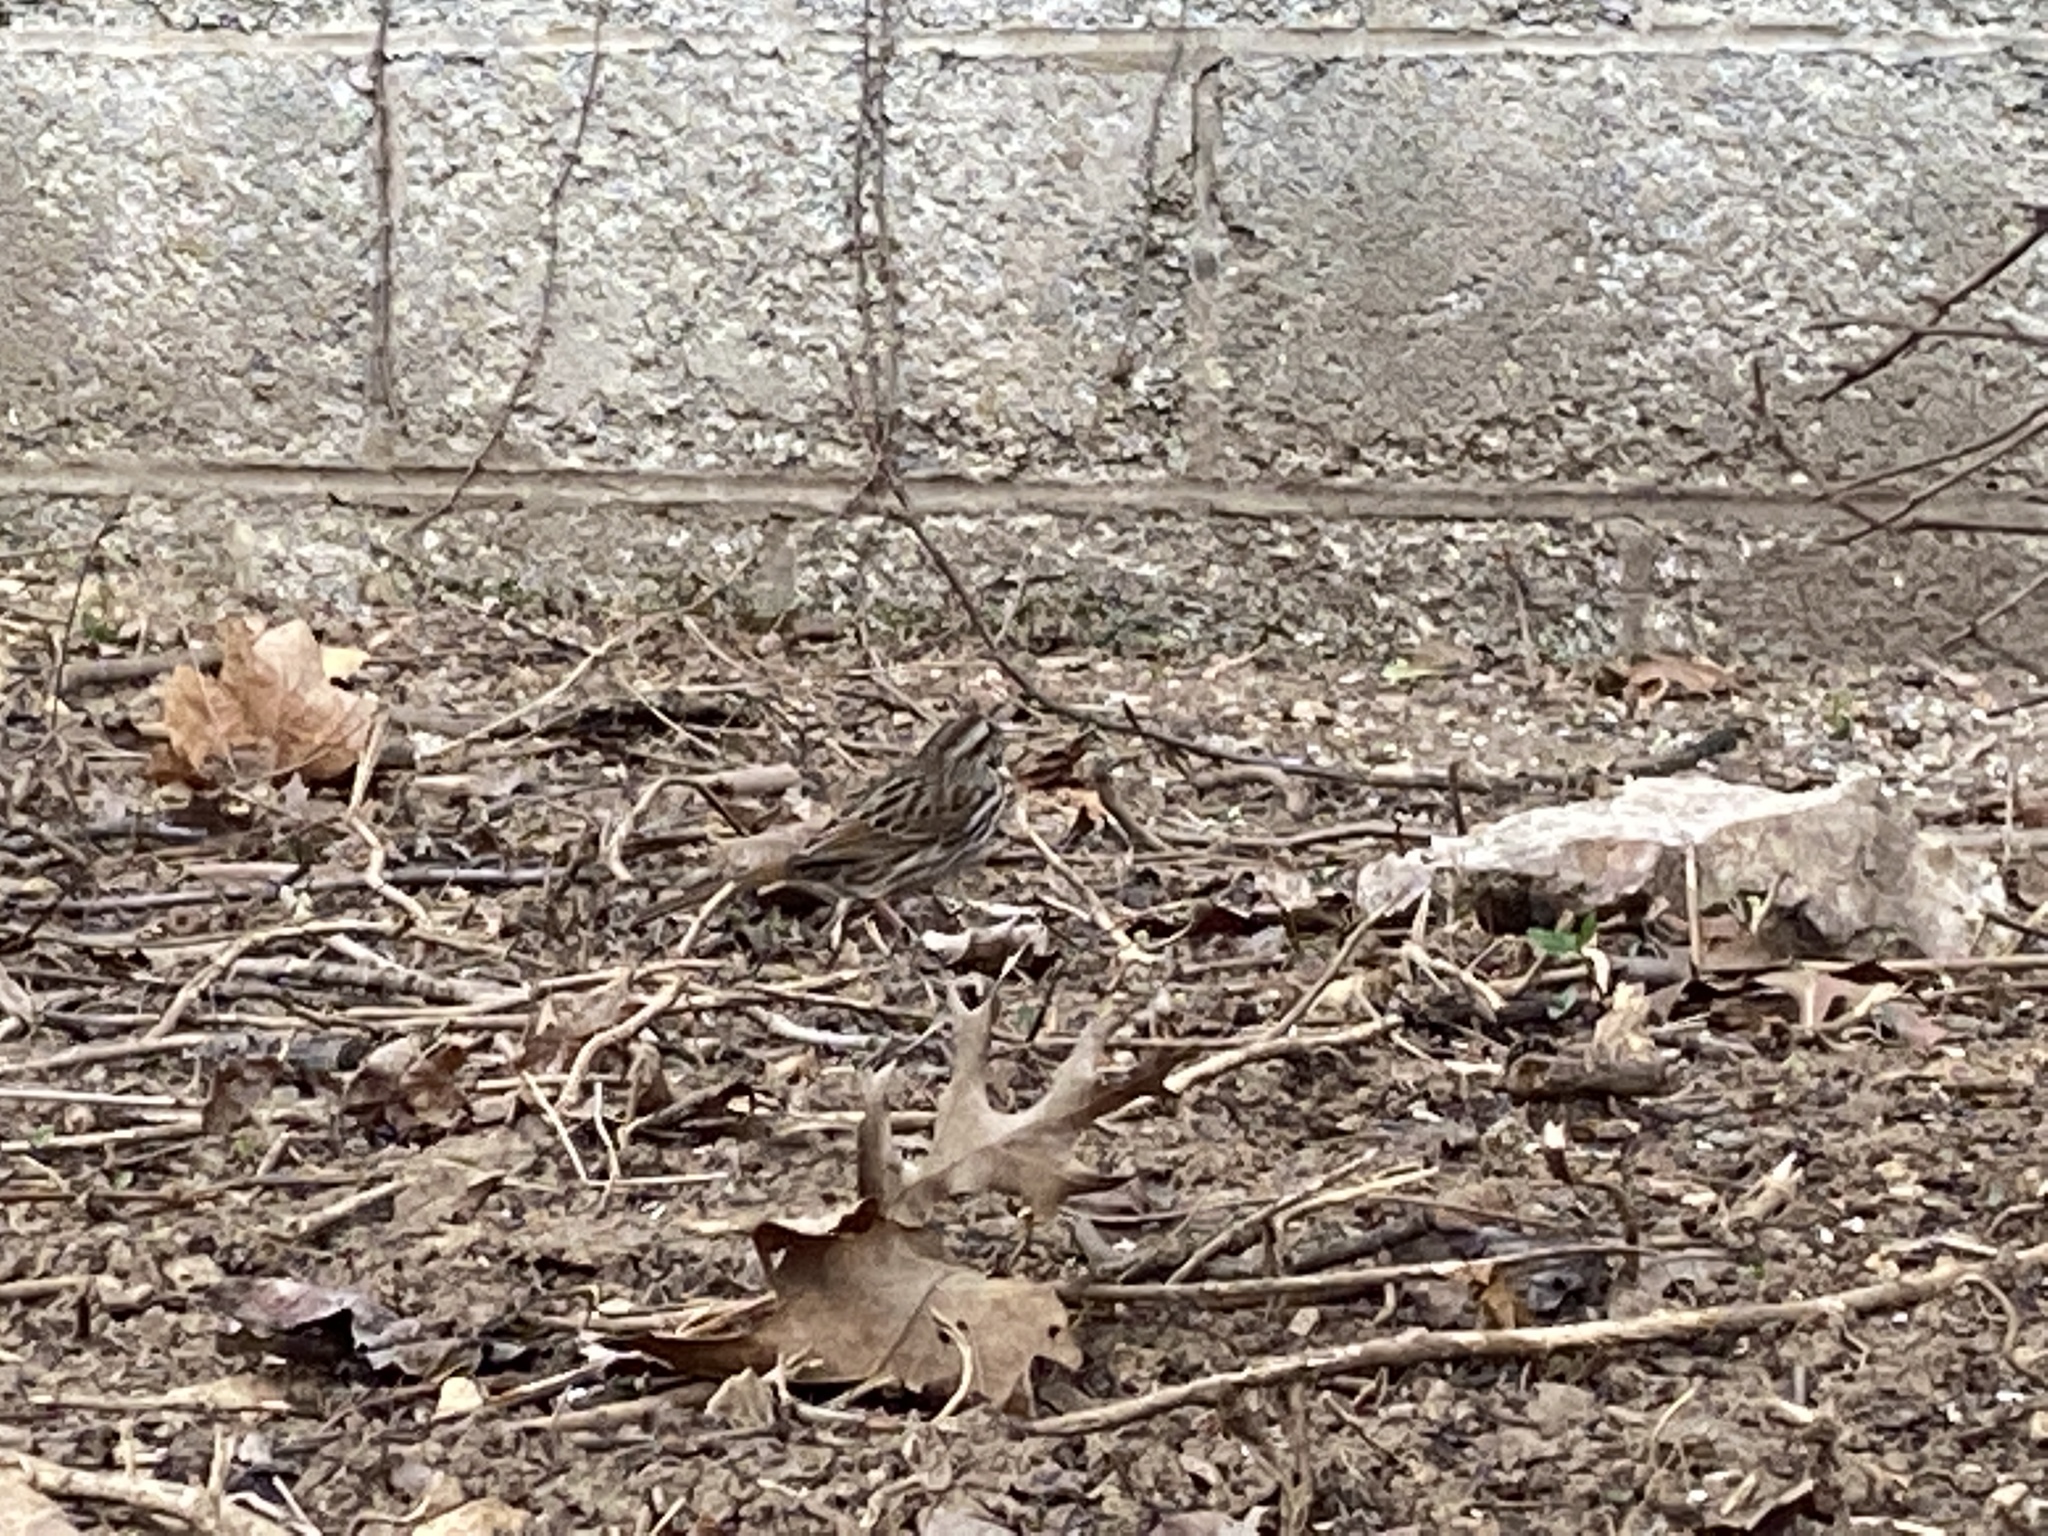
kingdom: Animalia
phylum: Chordata
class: Aves
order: Passeriformes
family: Passerellidae
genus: Melospiza
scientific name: Melospiza melodia
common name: Song sparrow
